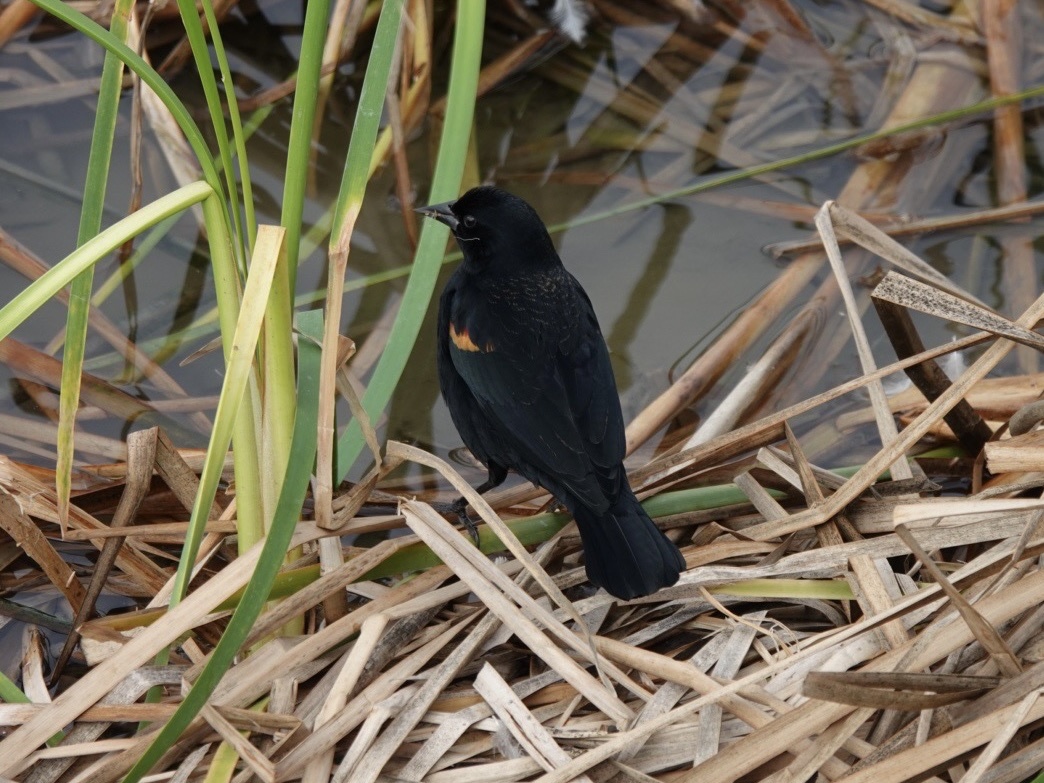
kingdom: Animalia
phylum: Chordata
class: Aves
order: Passeriformes
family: Icteridae
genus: Agelaius
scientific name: Agelaius phoeniceus
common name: Red-winged blackbird
